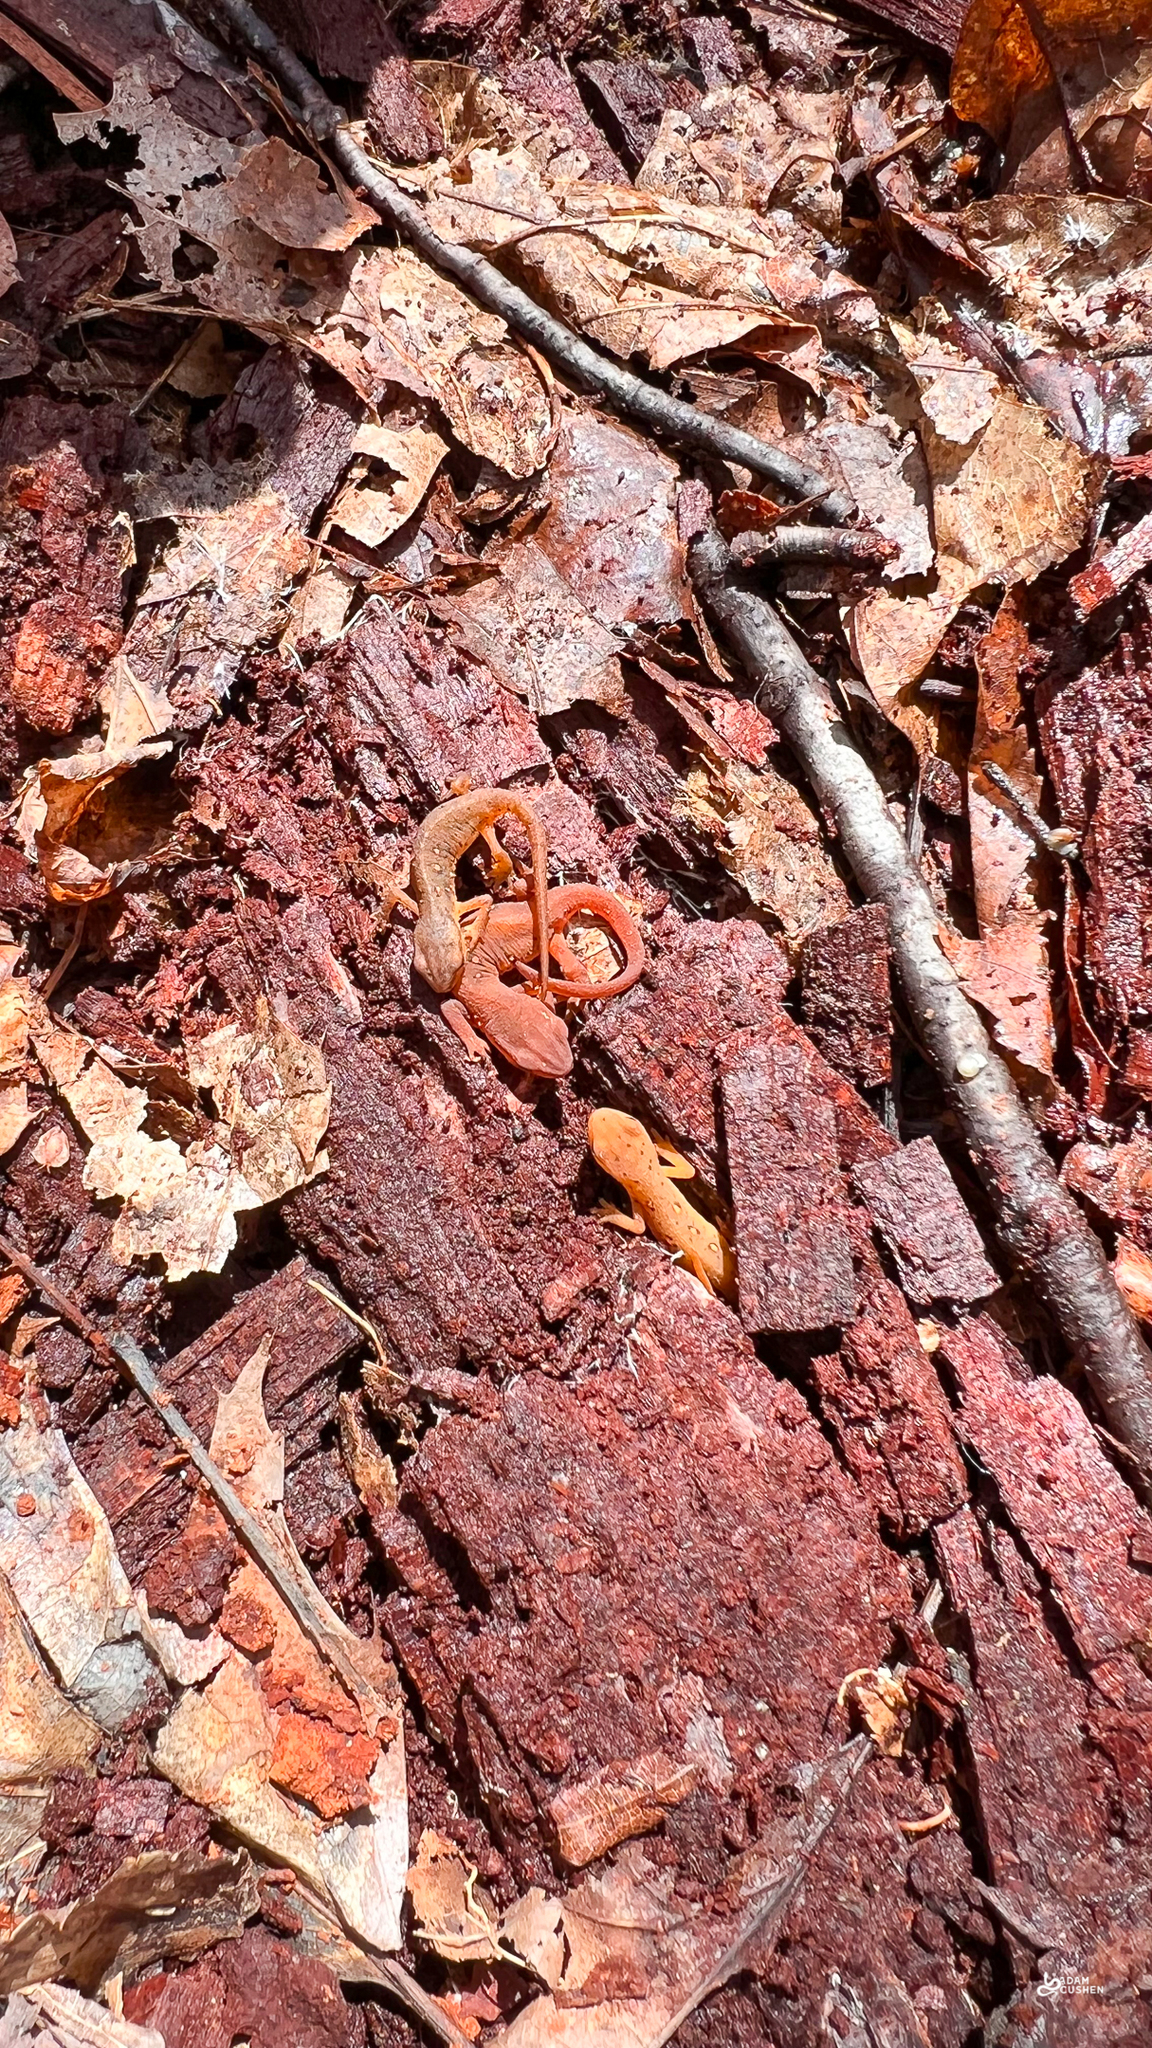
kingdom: Animalia
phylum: Chordata
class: Amphibia
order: Caudata
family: Salamandridae
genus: Notophthalmus
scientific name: Notophthalmus viridescens
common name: Eastern newt
